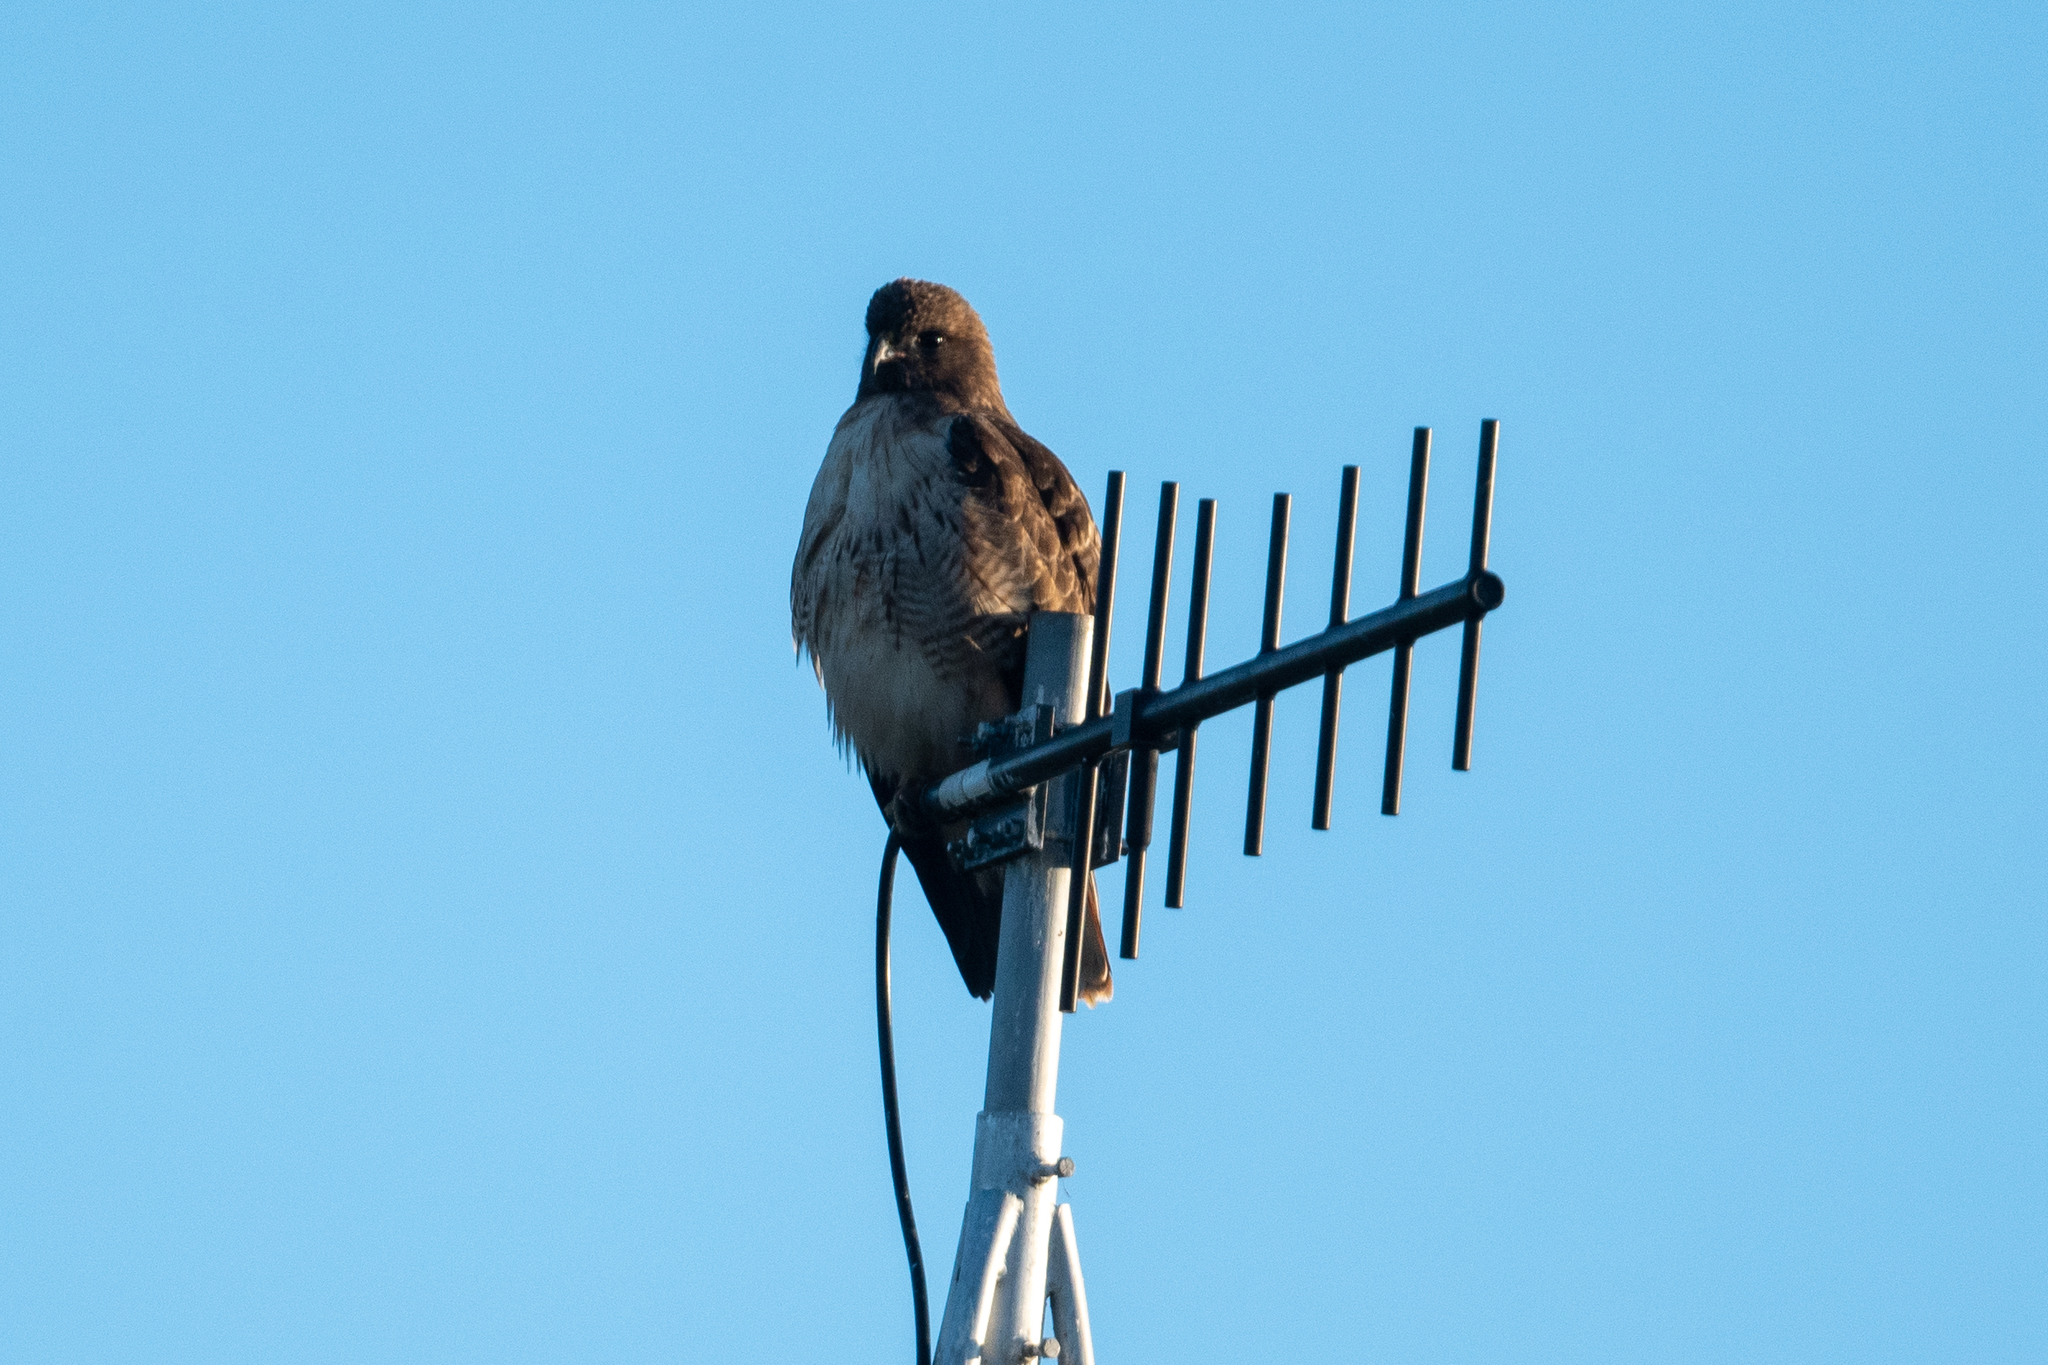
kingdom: Animalia
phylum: Chordata
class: Aves
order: Accipitriformes
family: Accipitridae
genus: Buteo
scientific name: Buteo jamaicensis
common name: Red-tailed hawk
